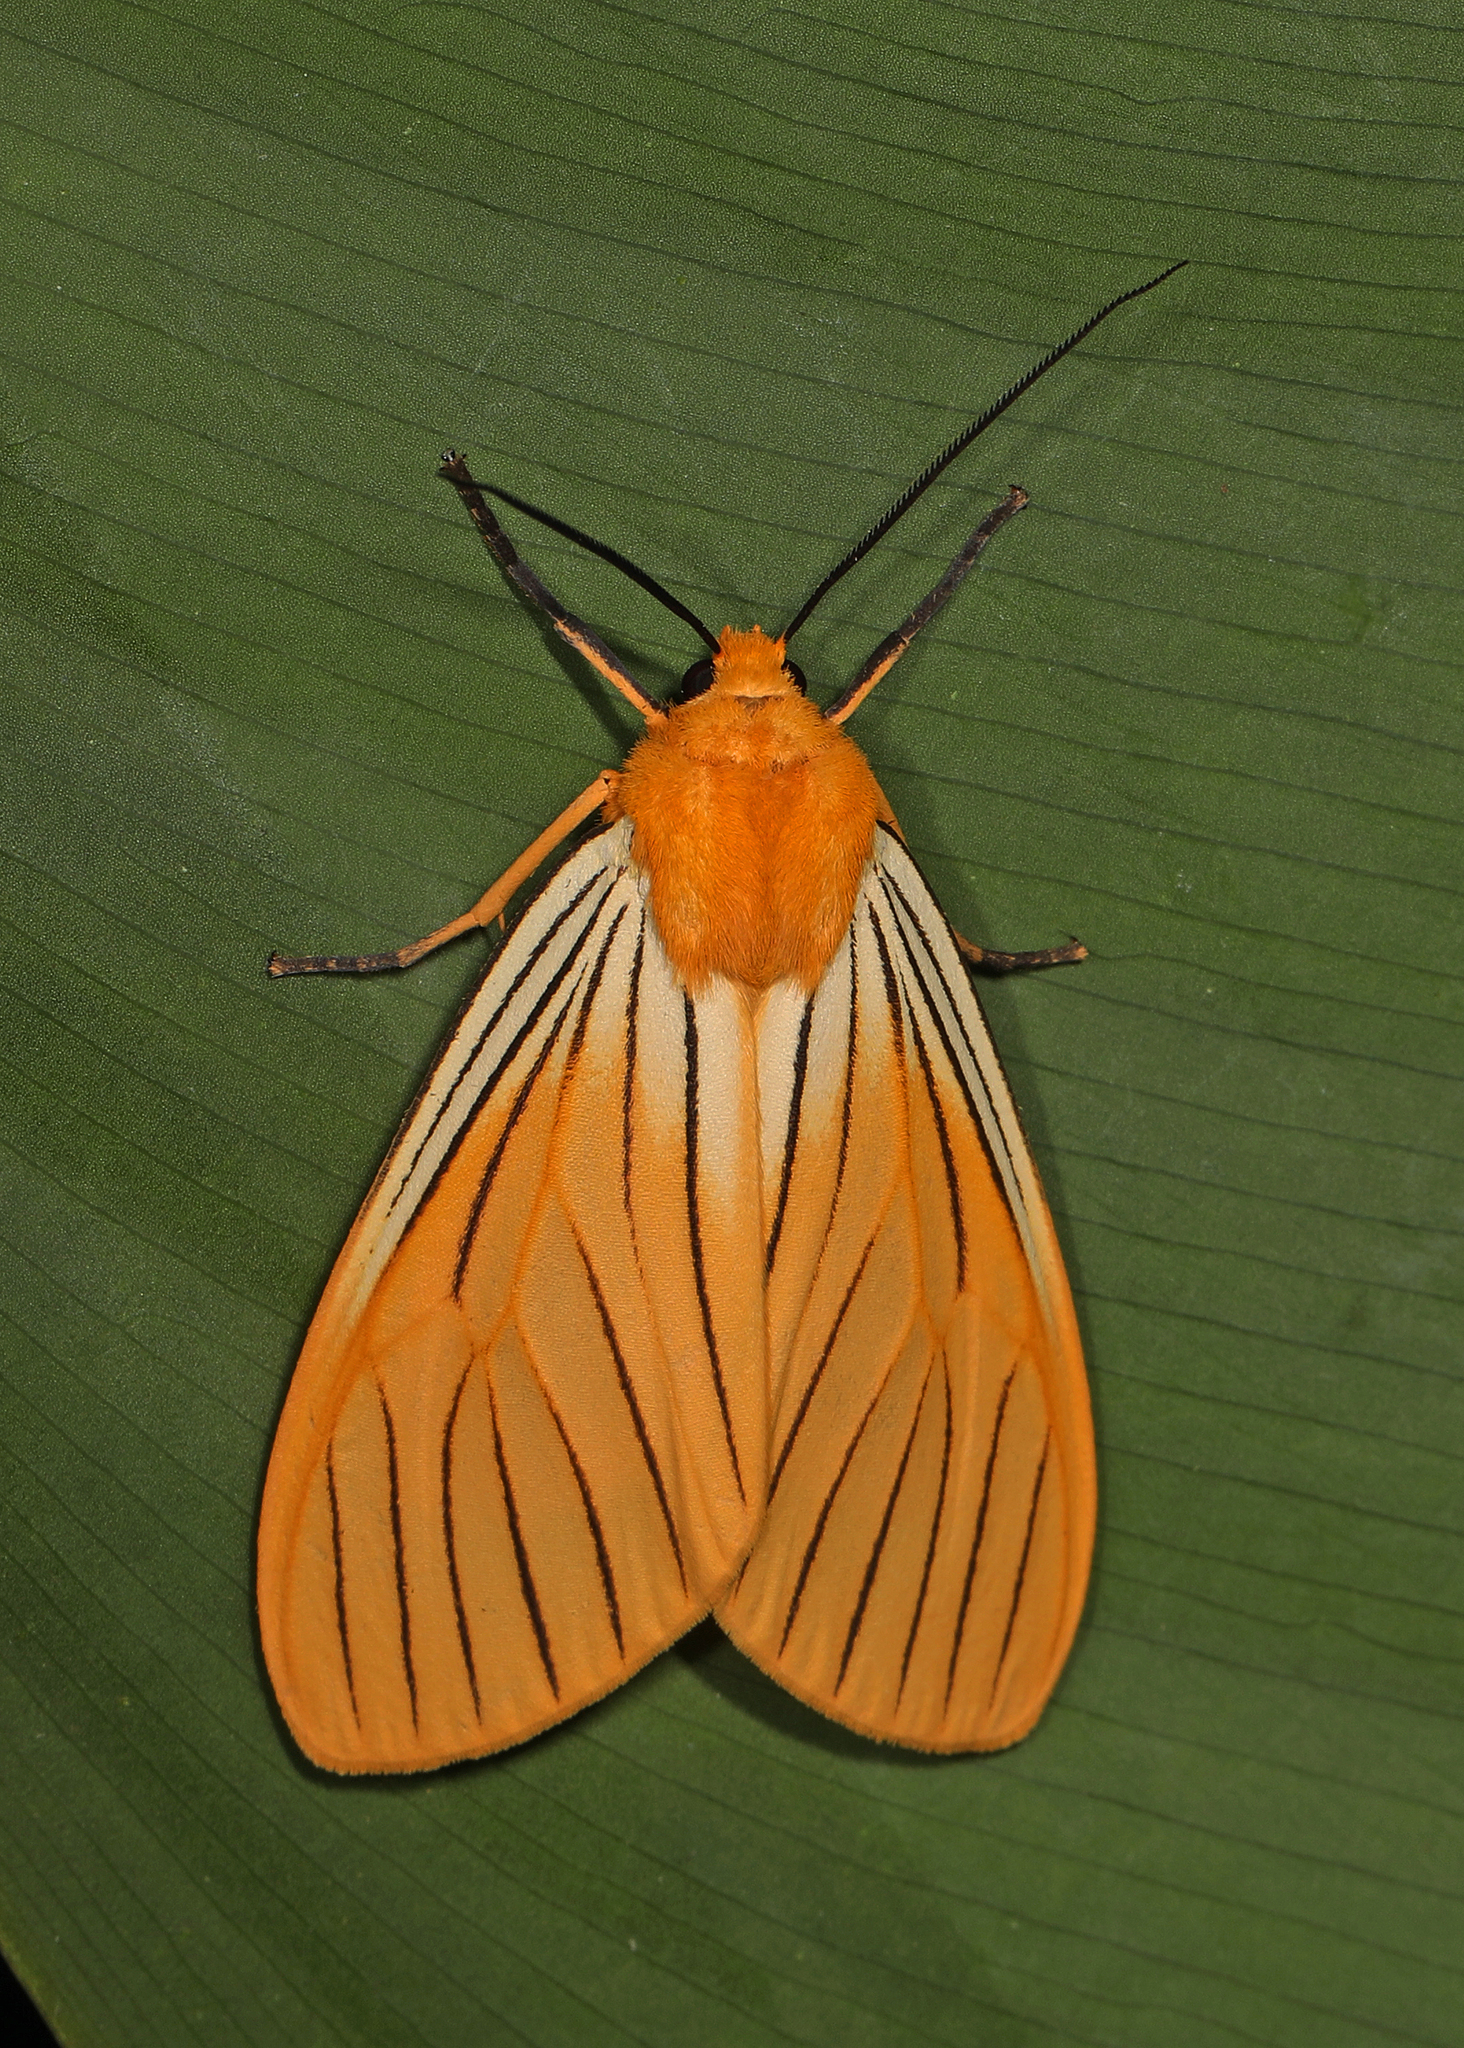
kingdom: Animalia
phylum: Arthropoda
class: Insecta
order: Lepidoptera
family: Erebidae
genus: Pseudischnocampa
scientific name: Pseudischnocampa
